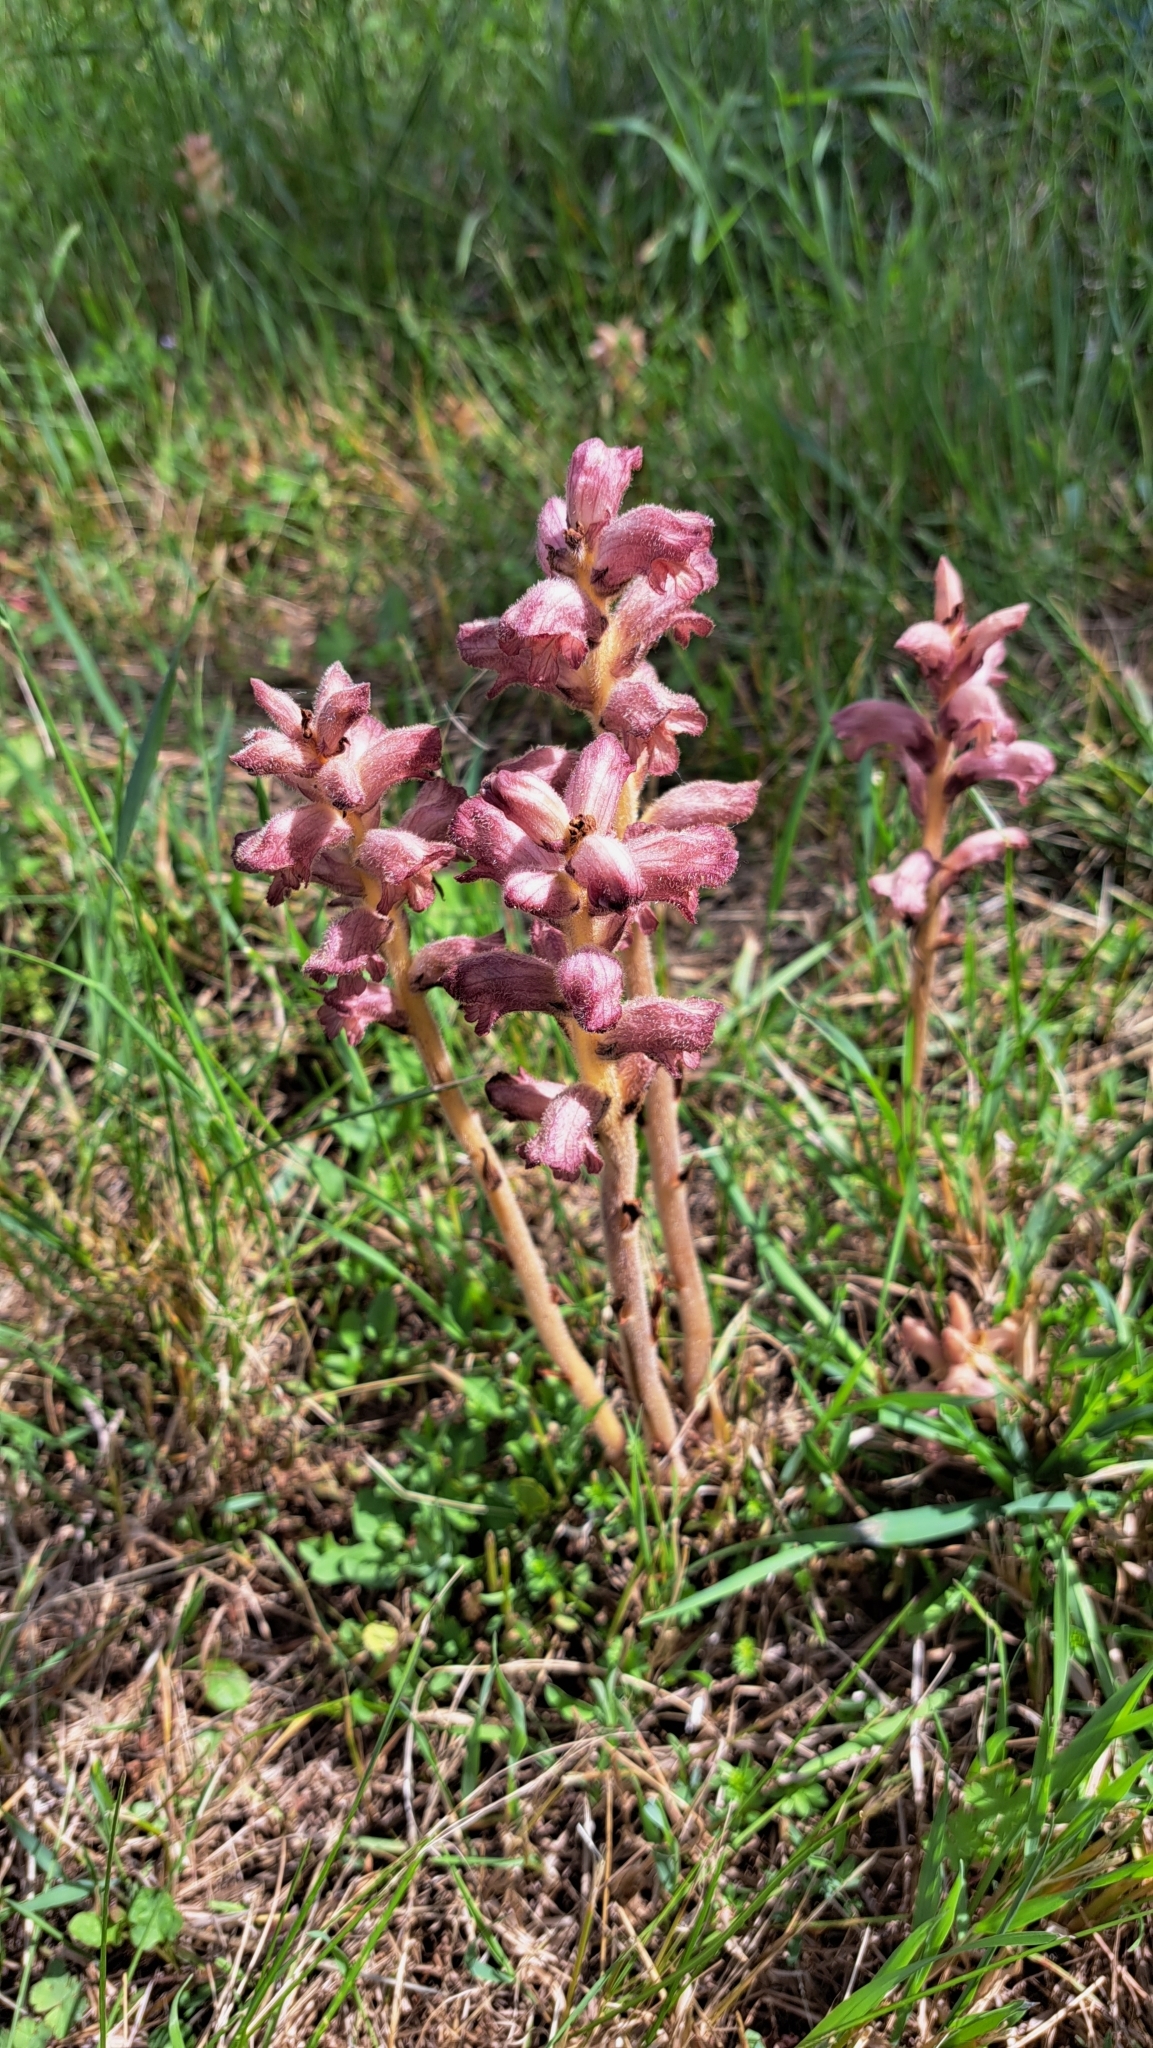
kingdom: Plantae
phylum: Tracheophyta
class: Magnoliopsida
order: Lamiales
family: Orobanchaceae
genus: Orobanche
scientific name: Orobanche caryophyllacea
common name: Bedstraw broomrape
